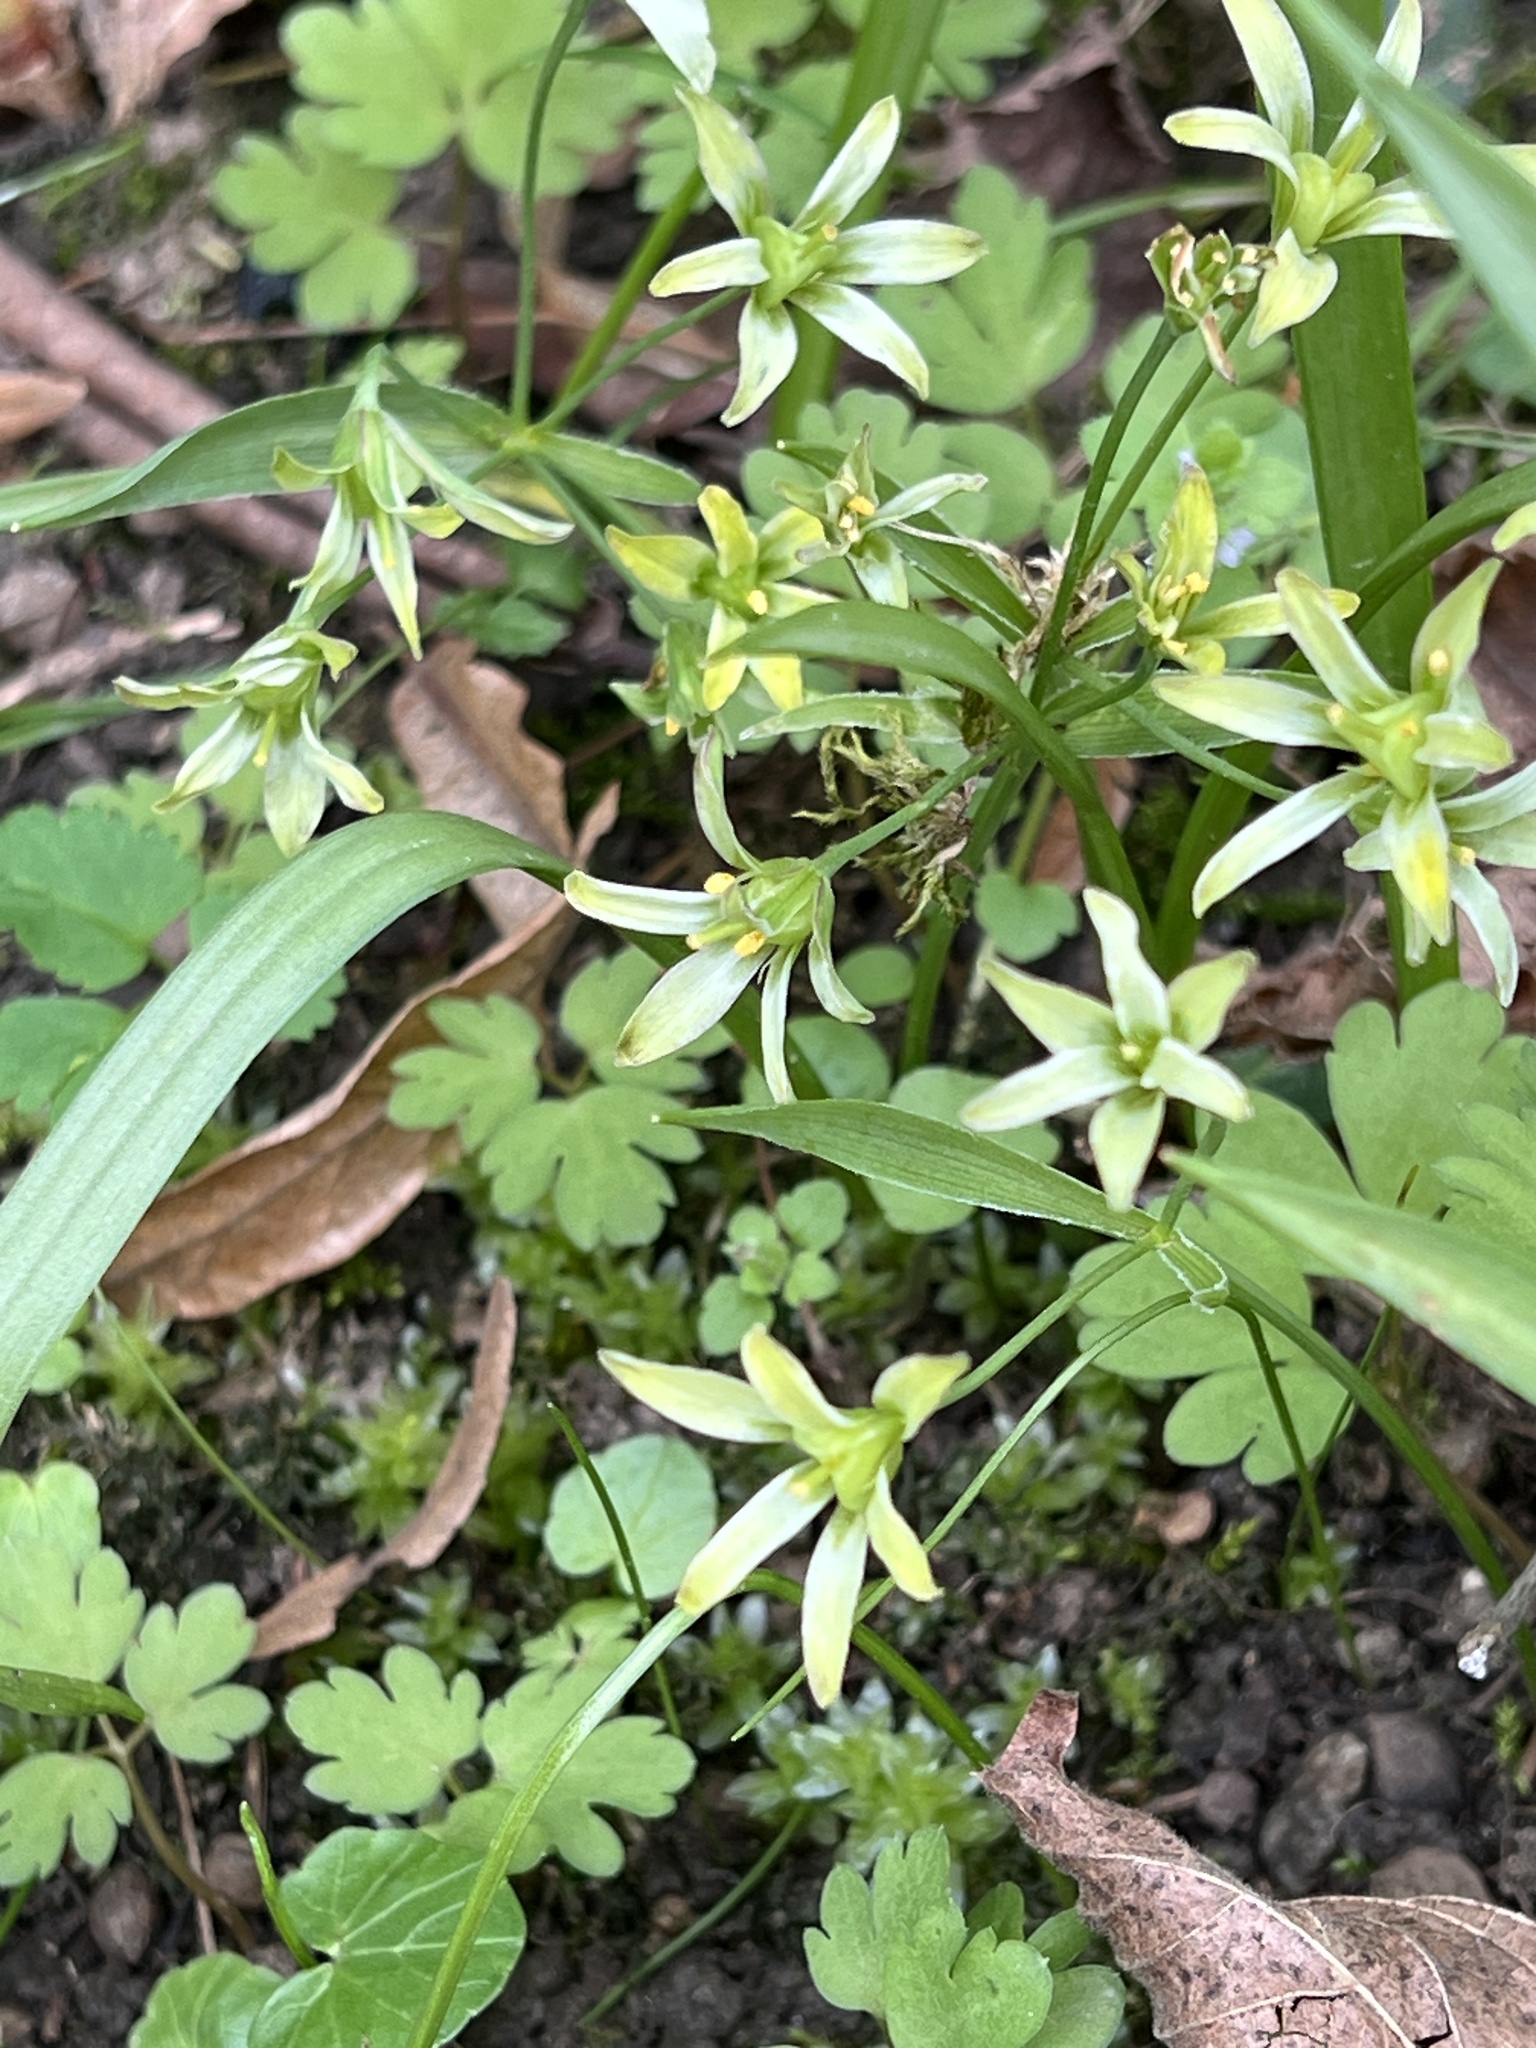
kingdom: Plantae
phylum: Tracheophyta
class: Liliopsida
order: Liliales
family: Liliaceae
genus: Gagea
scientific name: Gagea lutea
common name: Yellow star-of-bethlehem
